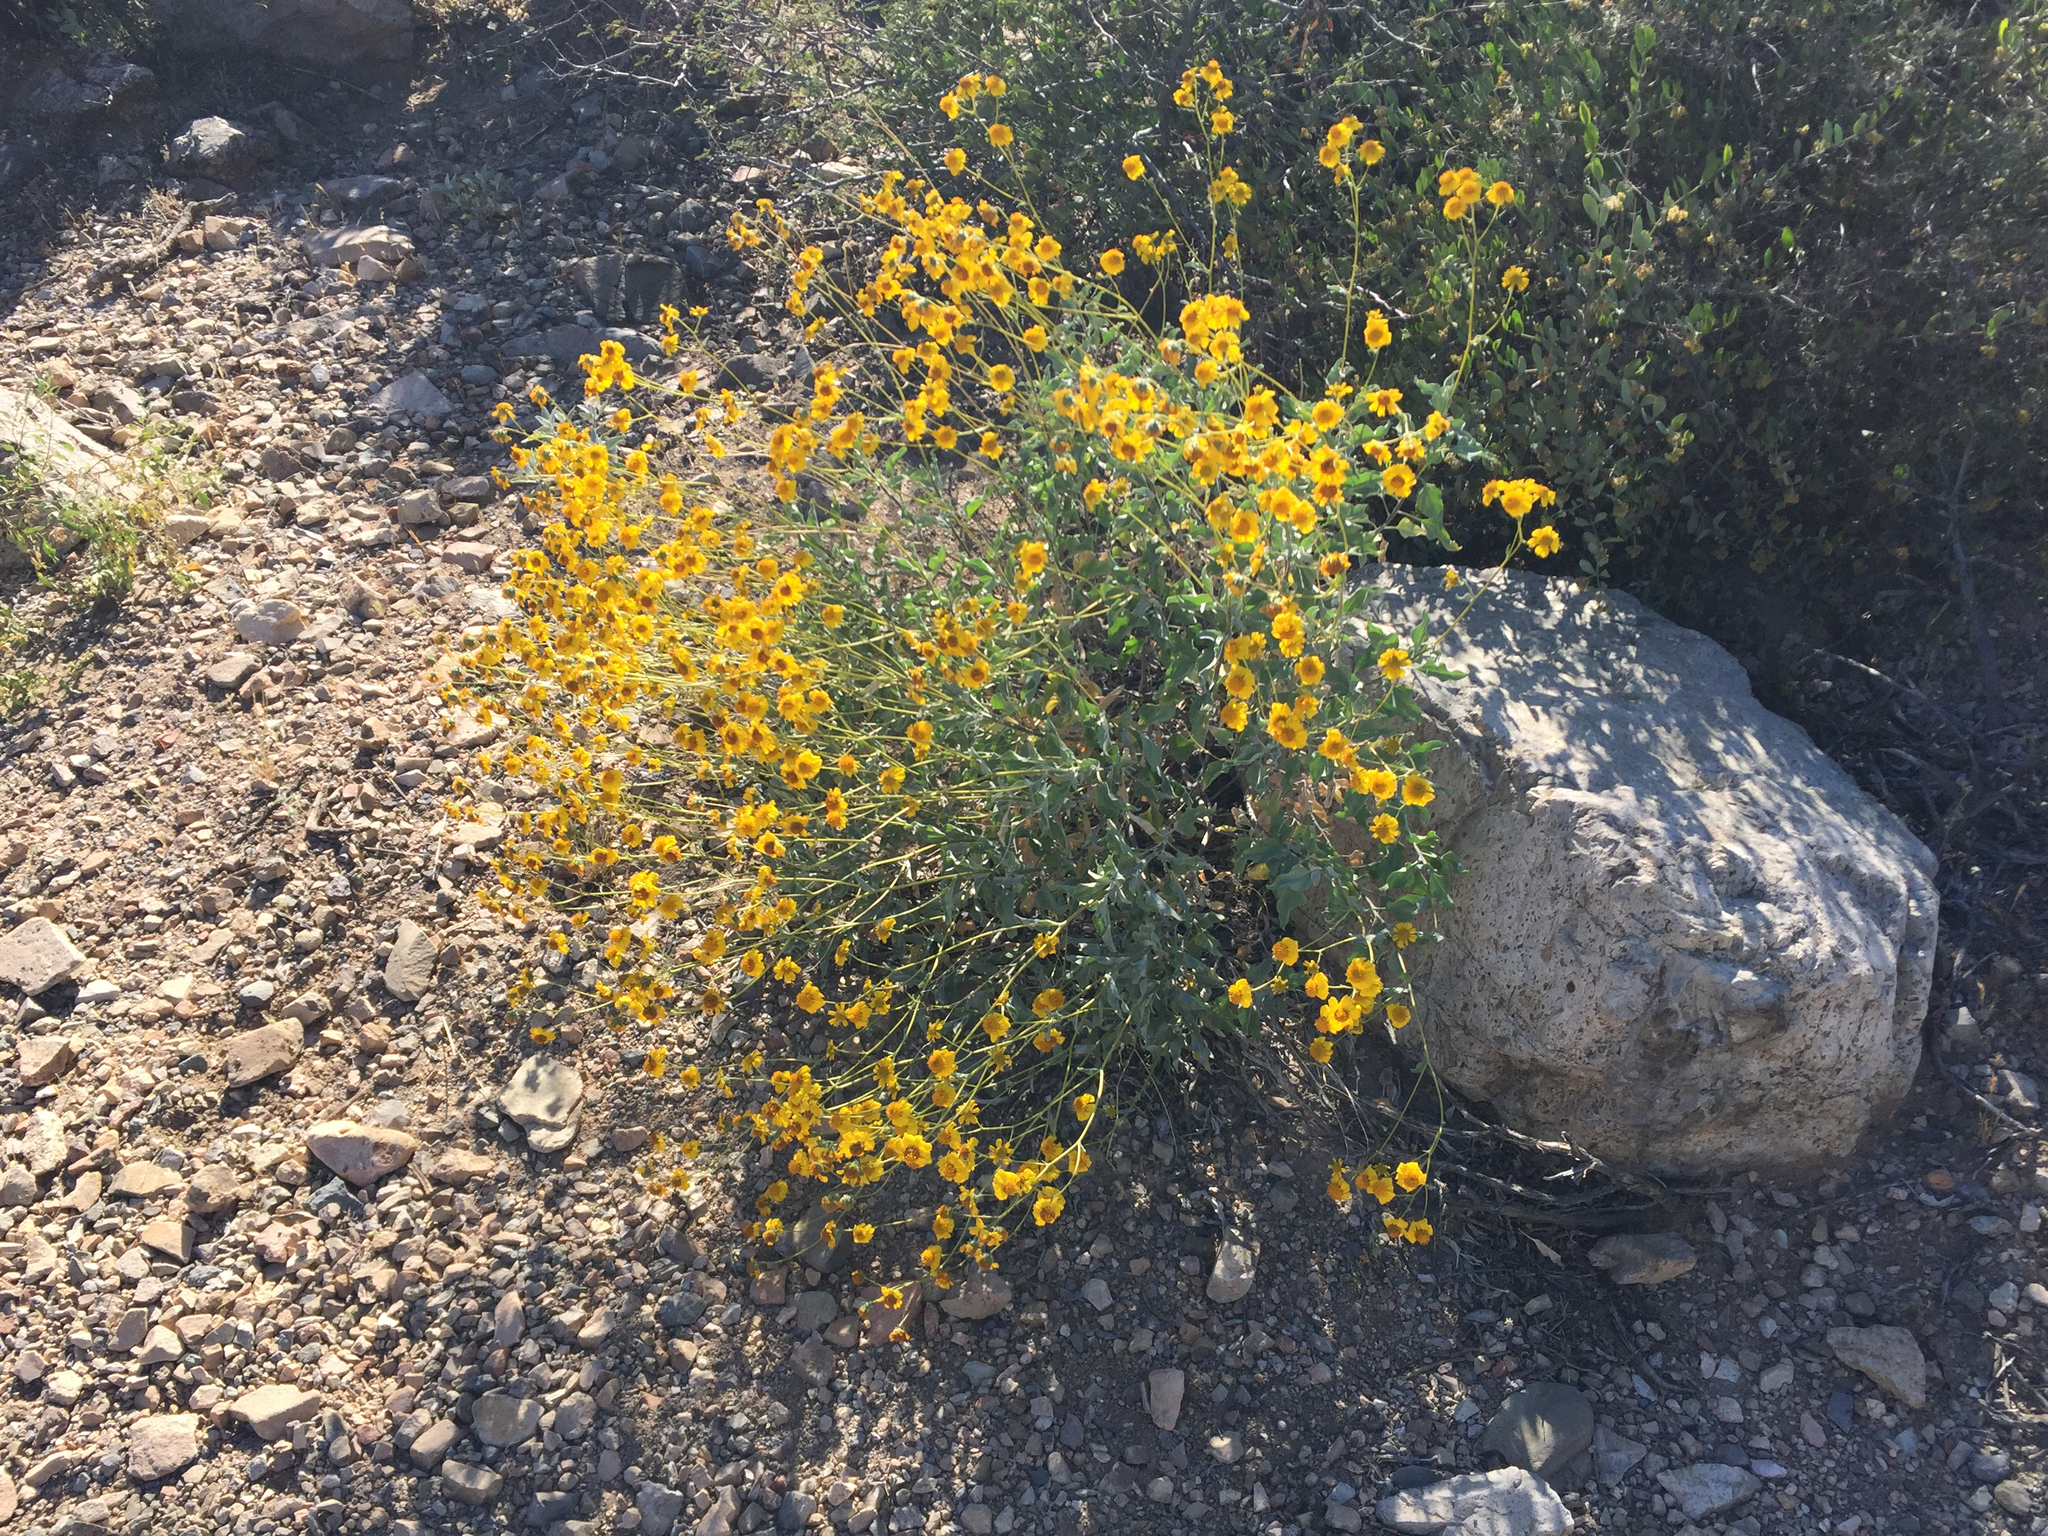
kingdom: Plantae
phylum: Tracheophyta
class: Magnoliopsida
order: Asterales
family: Asteraceae
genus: Encelia
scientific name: Encelia farinosa
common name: Brittlebush
